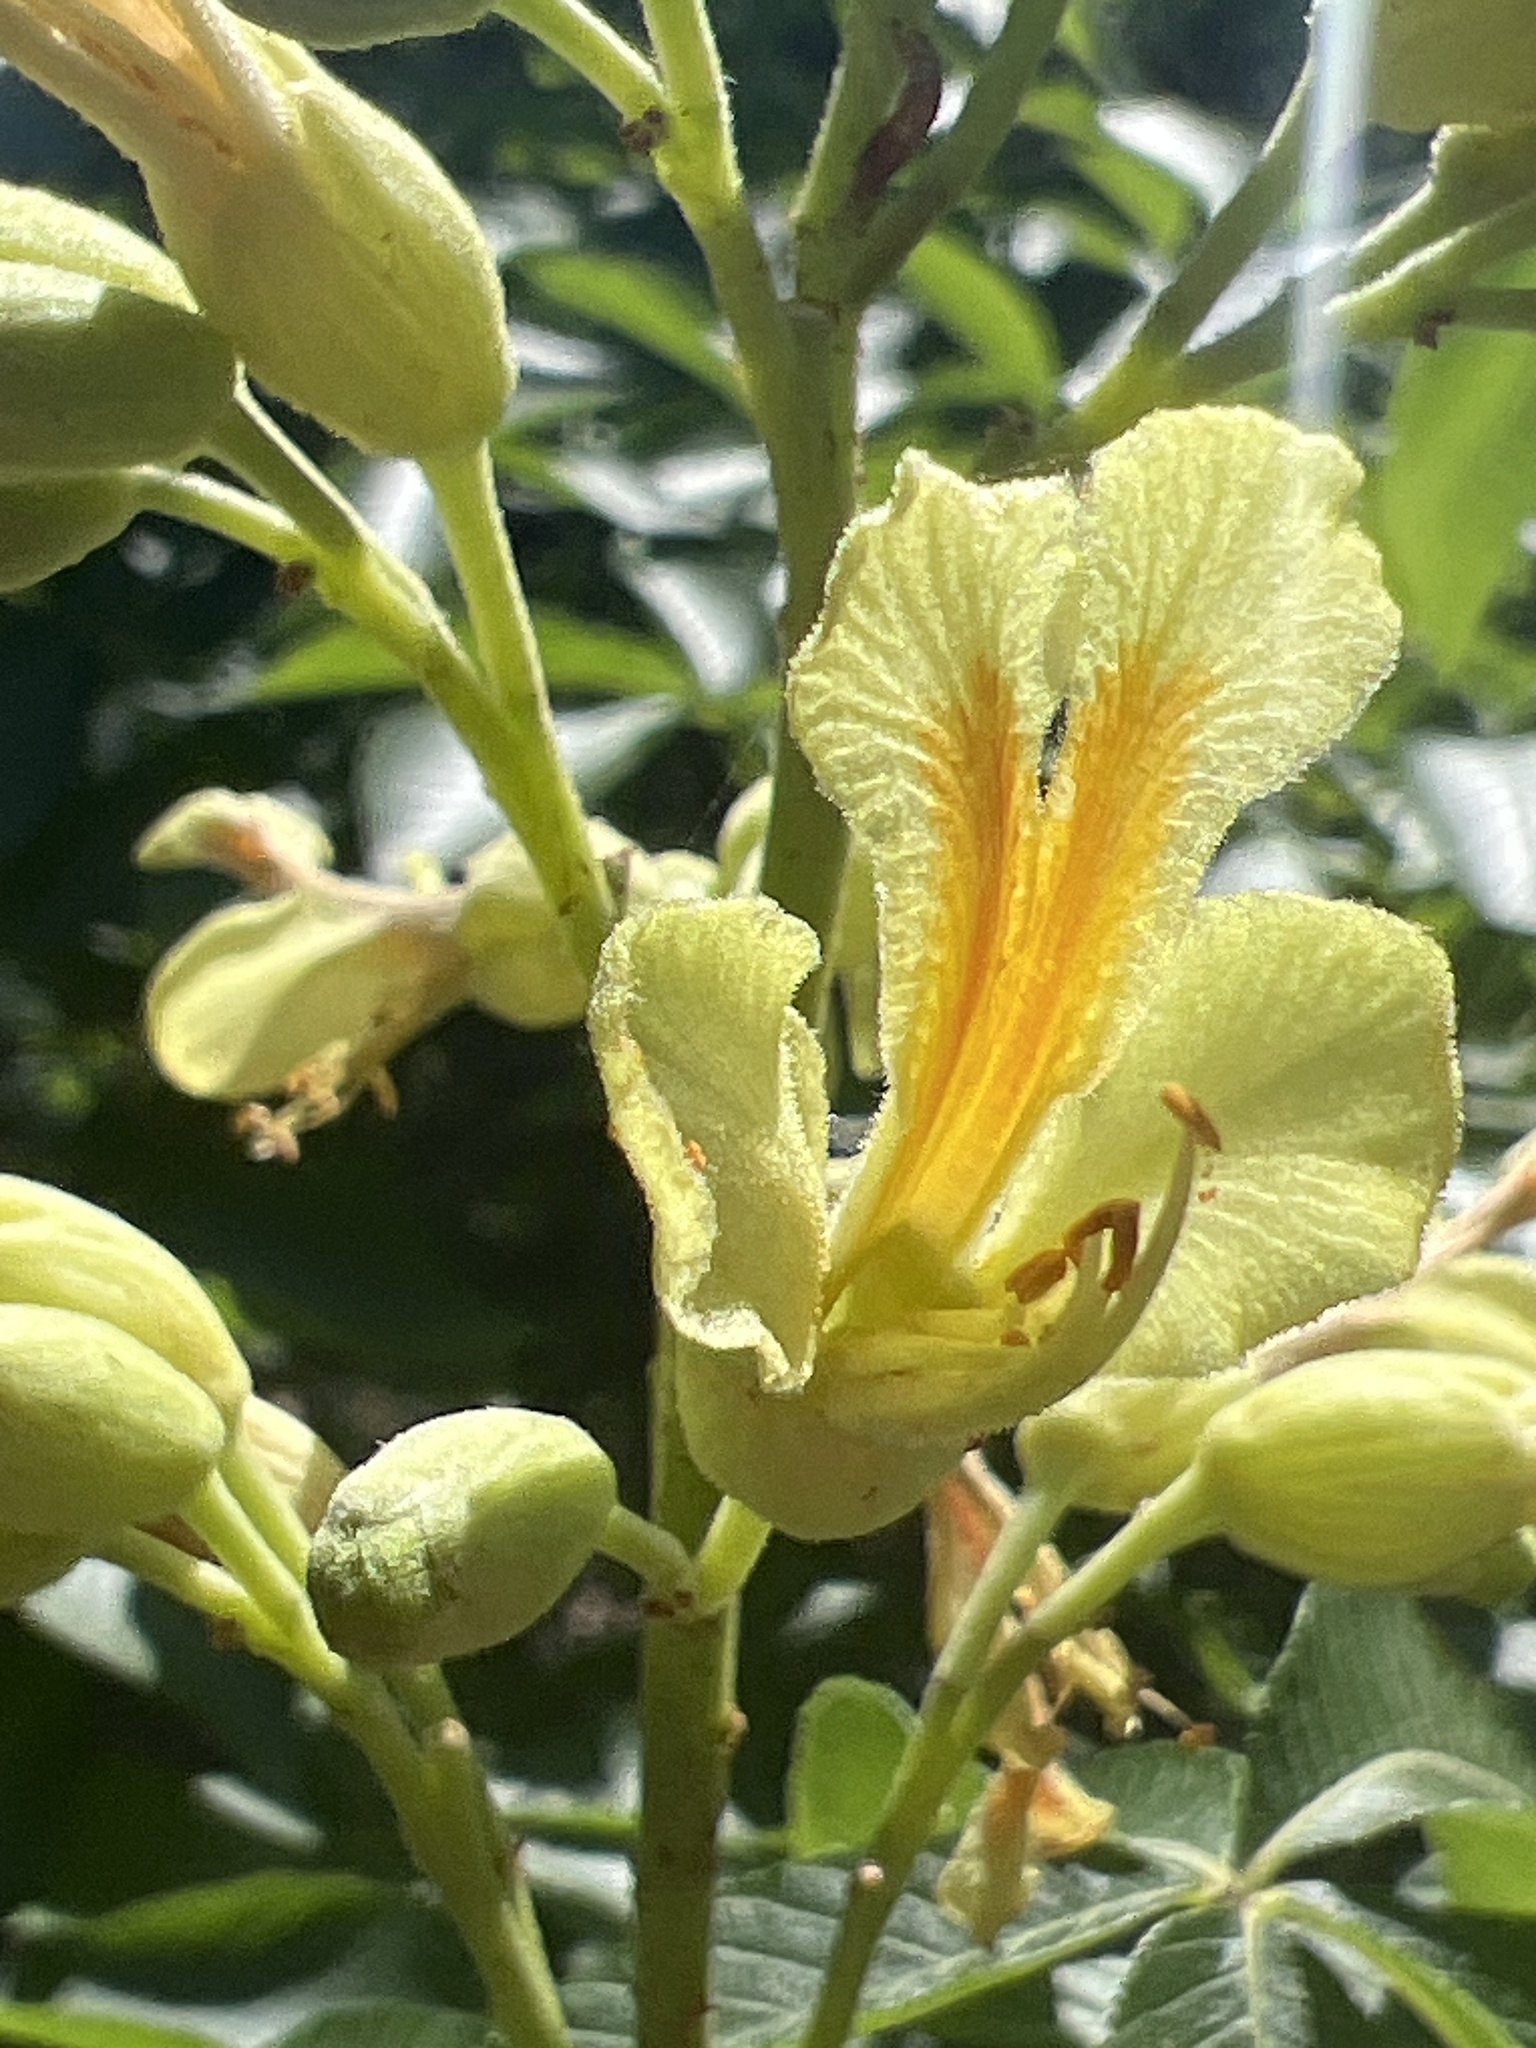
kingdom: Plantae
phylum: Tracheophyta
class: Magnoliopsida
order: Sapindales
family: Sapindaceae
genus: Aesculus
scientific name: Aesculus pavia
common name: Red buckeye
